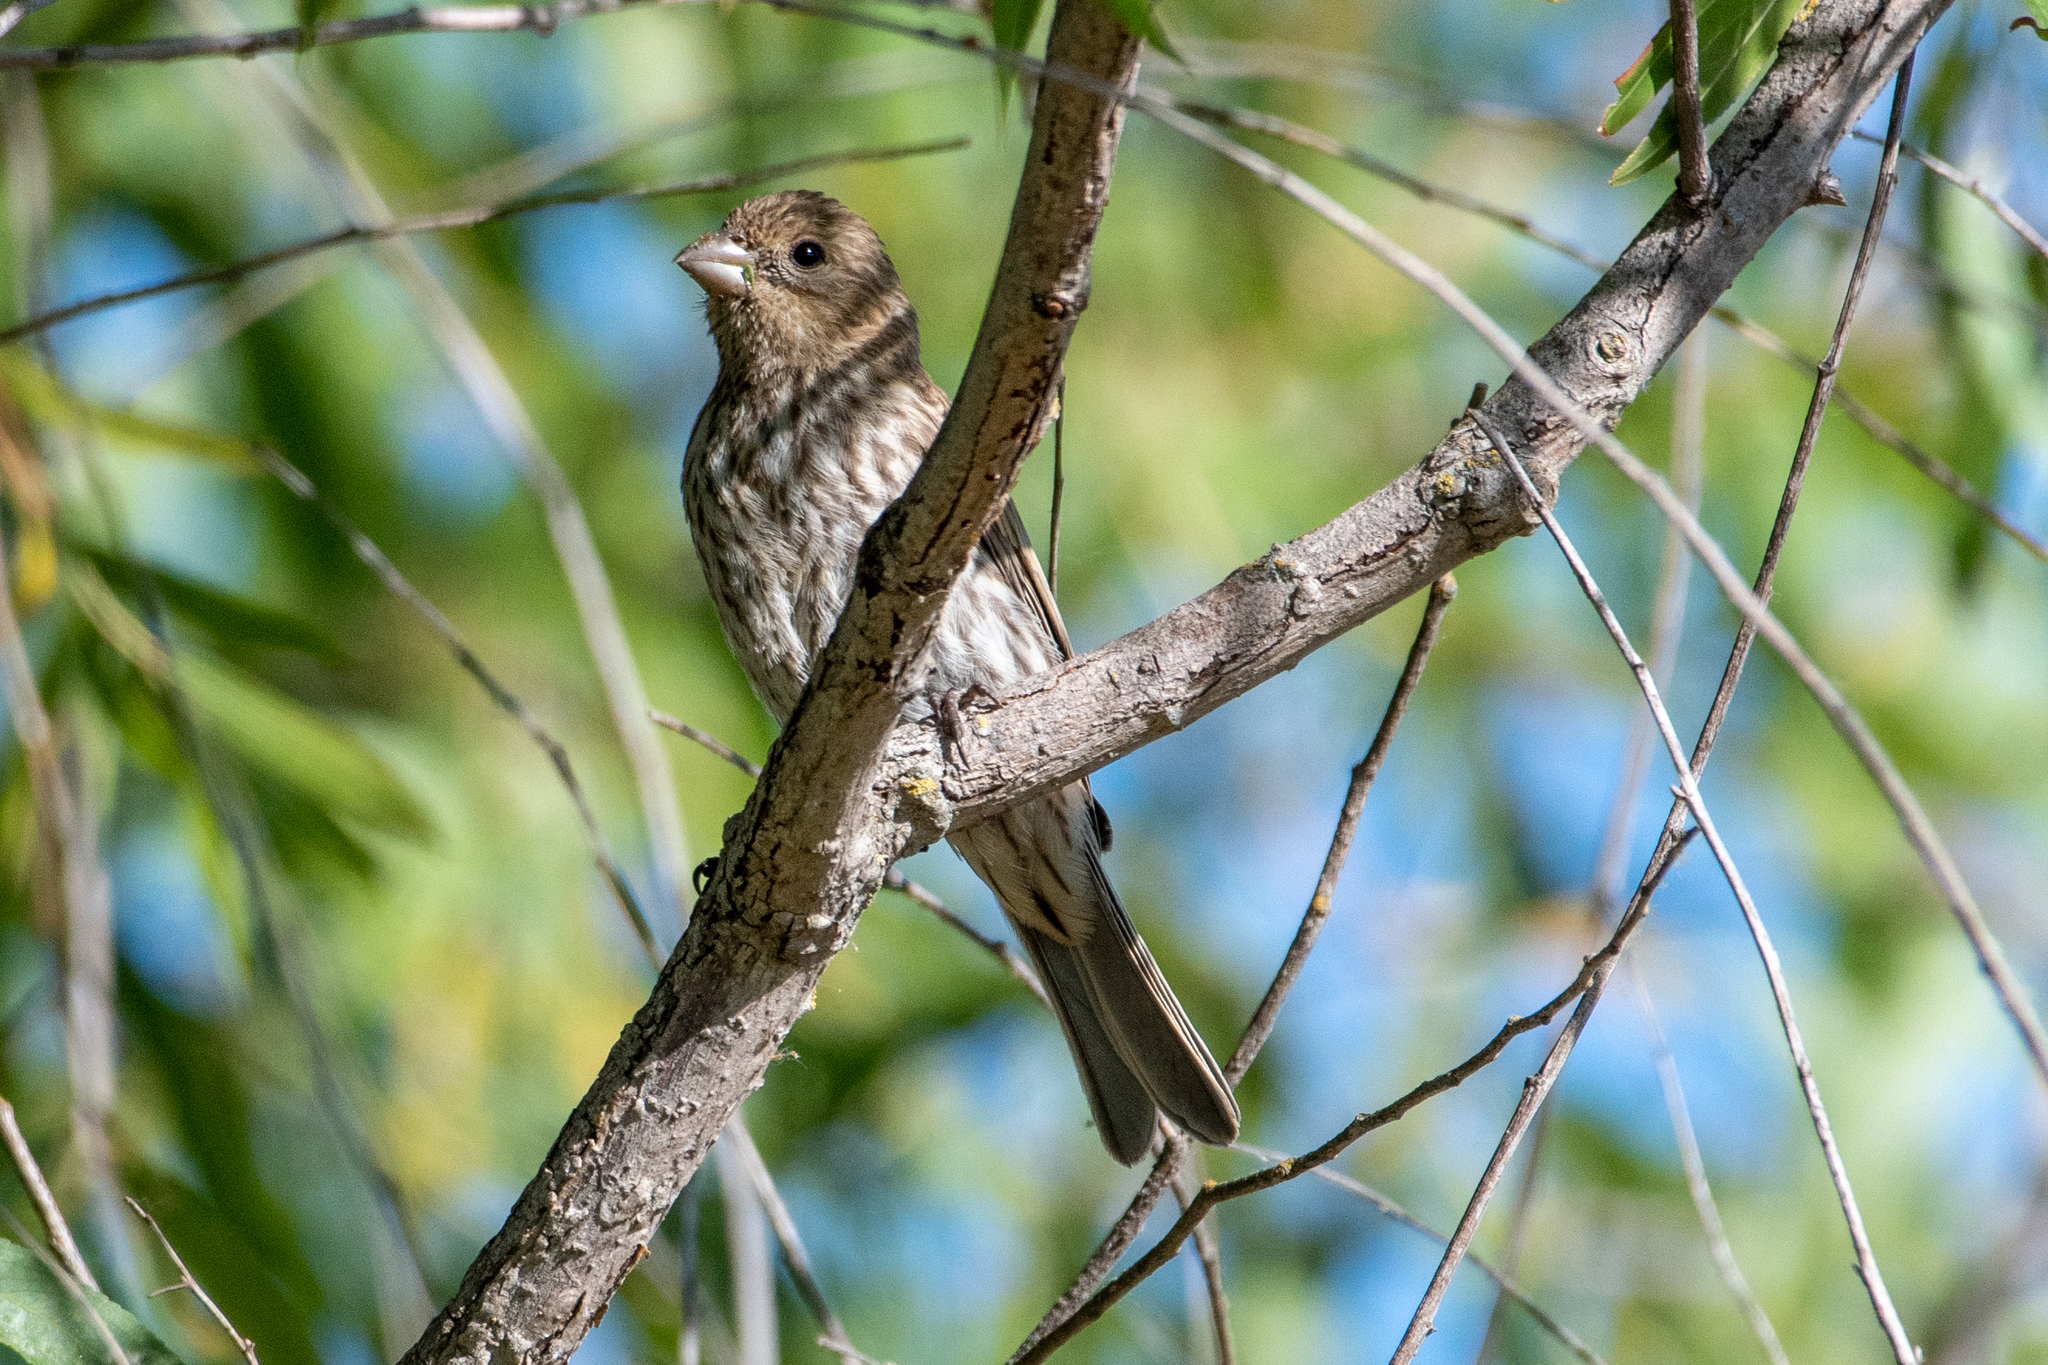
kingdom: Animalia
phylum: Chordata
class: Aves
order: Passeriformes
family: Fringillidae
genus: Haemorhous
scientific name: Haemorhous mexicanus
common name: House finch
